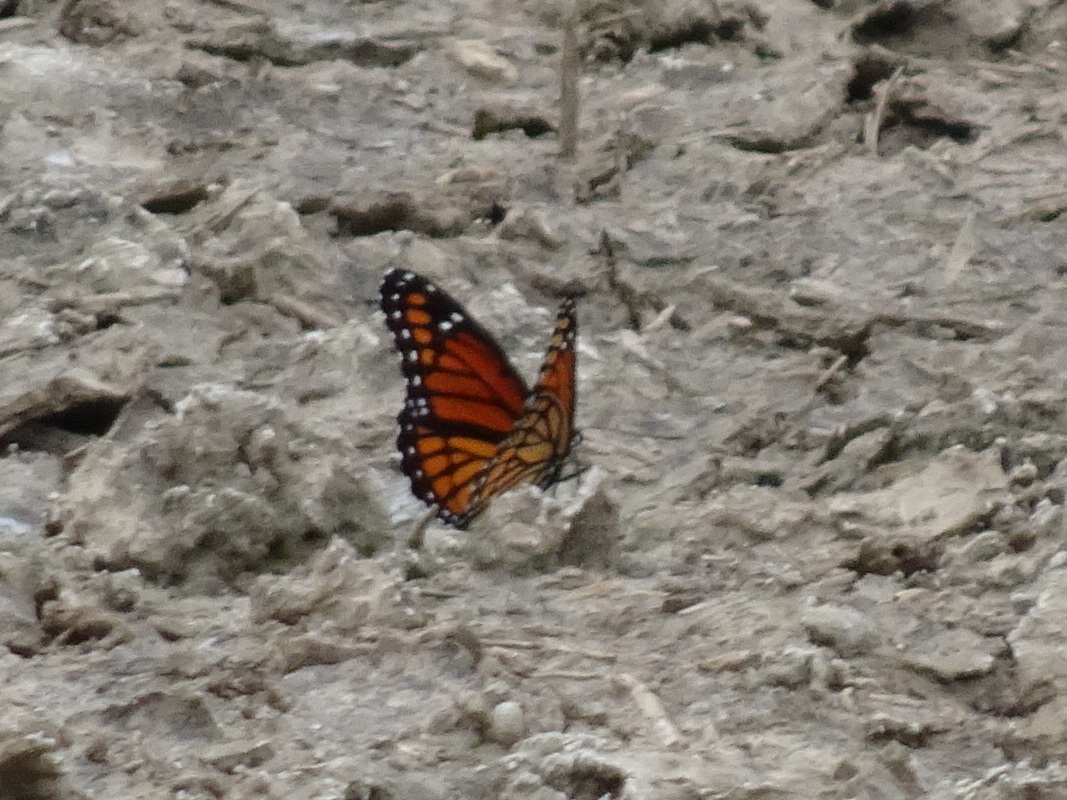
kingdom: Animalia
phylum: Arthropoda
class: Insecta
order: Lepidoptera
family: Nymphalidae
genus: Limenitis
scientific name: Limenitis archippus
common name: Viceroy
